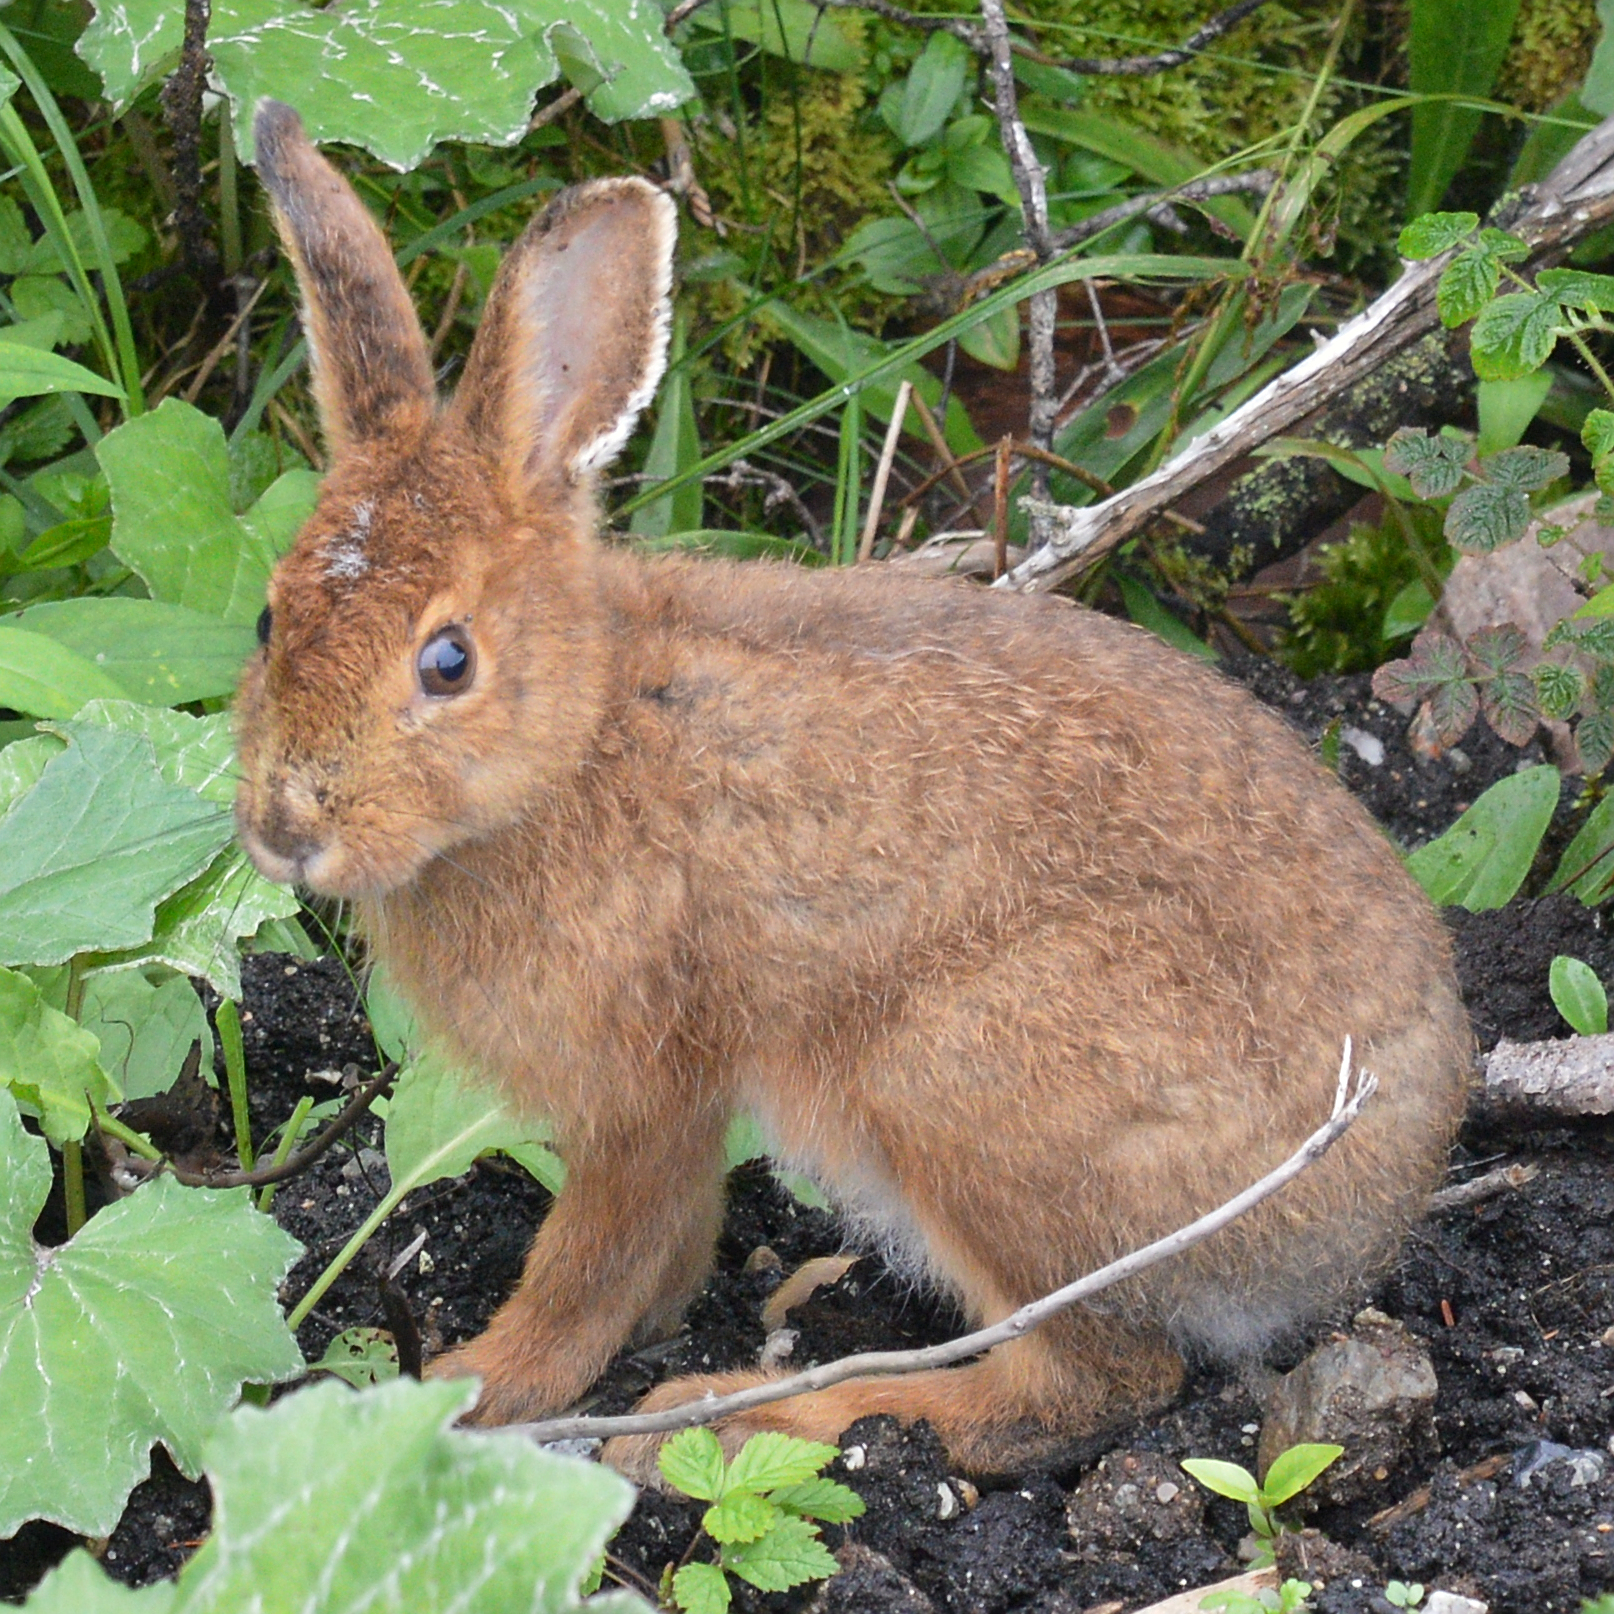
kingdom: Animalia
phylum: Chordata
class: Mammalia
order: Lagomorpha
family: Leporidae
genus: Lepus
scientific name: Lepus americanus
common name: Snowshoe hare
